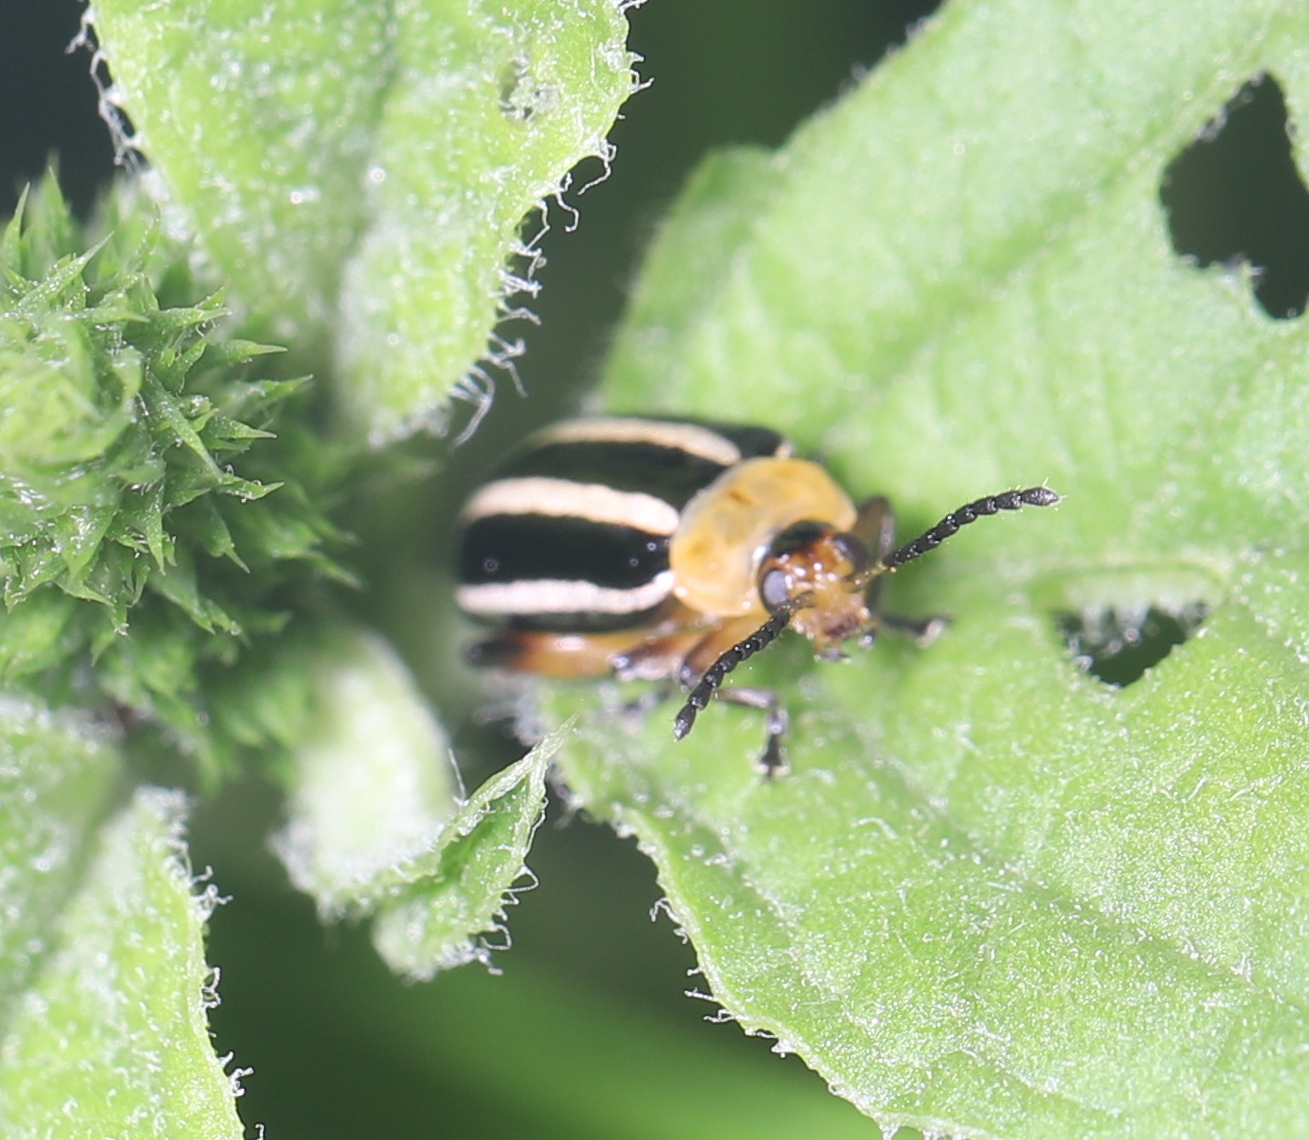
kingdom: Animalia
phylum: Arthropoda
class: Insecta
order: Coleoptera
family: Chrysomelidae
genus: Disonycha
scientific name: Disonycha glabrata
